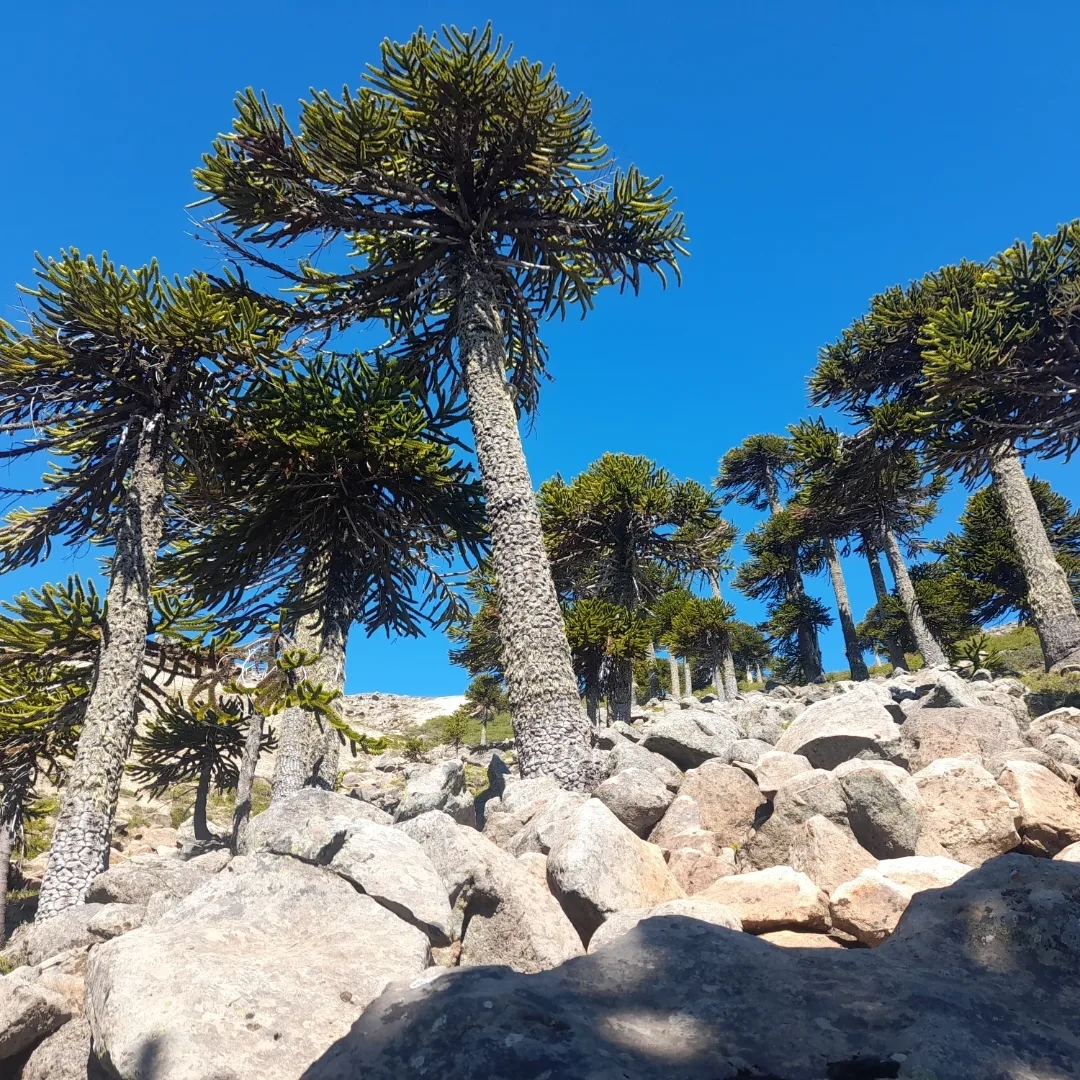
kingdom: Plantae
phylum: Tracheophyta
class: Pinopsida
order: Pinales
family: Araucariaceae
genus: Araucaria
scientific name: Araucaria araucana
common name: Monkey-puzzle
